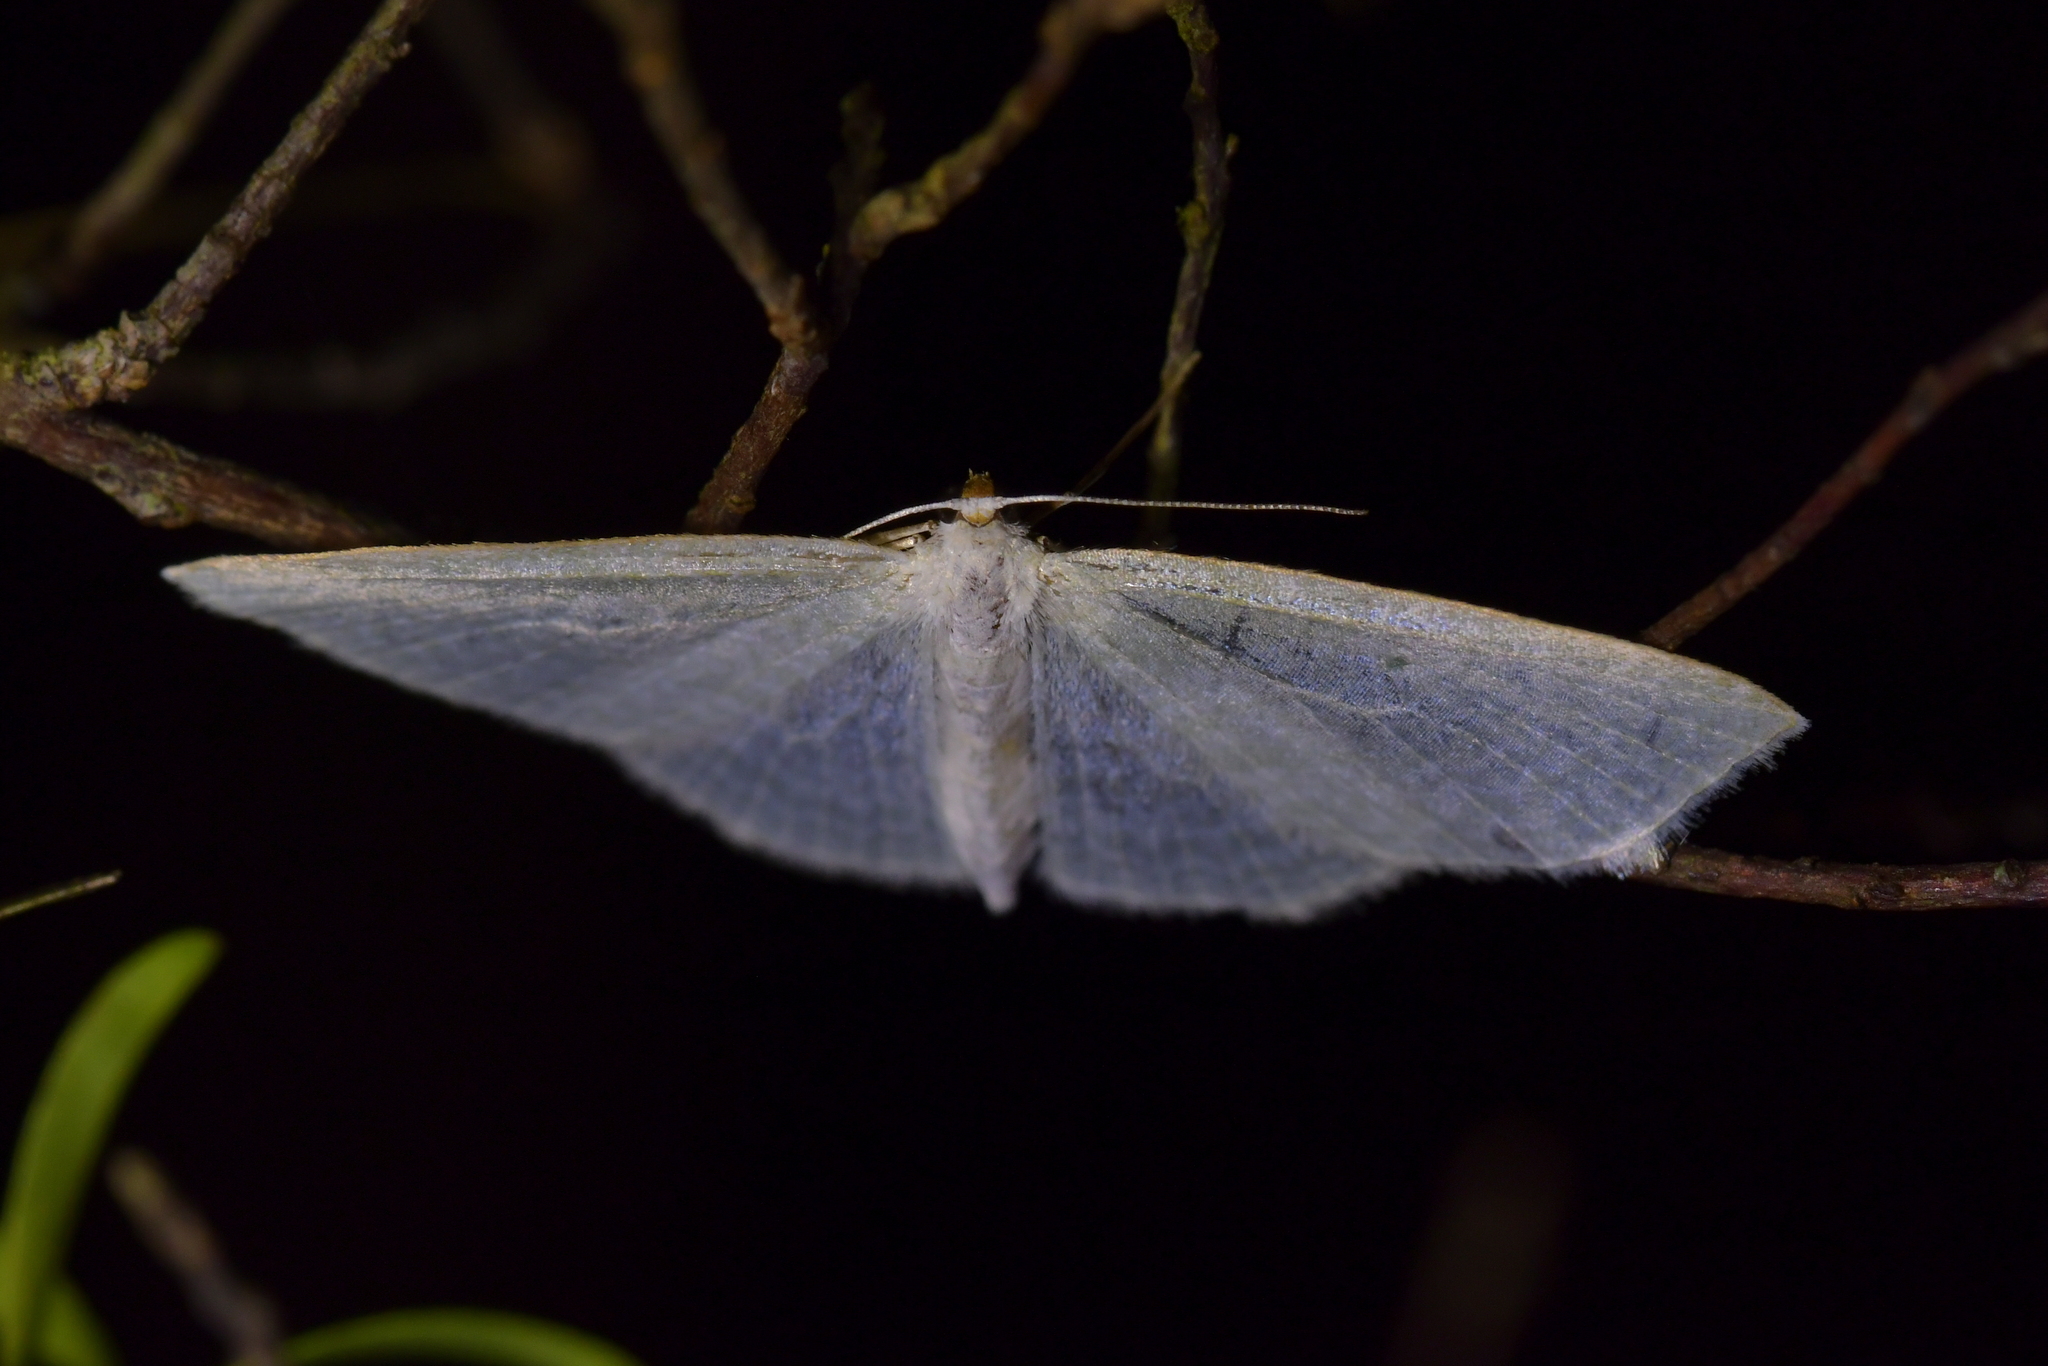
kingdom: Animalia
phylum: Arthropoda
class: Insecta
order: Lepidoptera
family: Geometridae
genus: Poecilasthena
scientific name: Poecilasthena pulchraria
